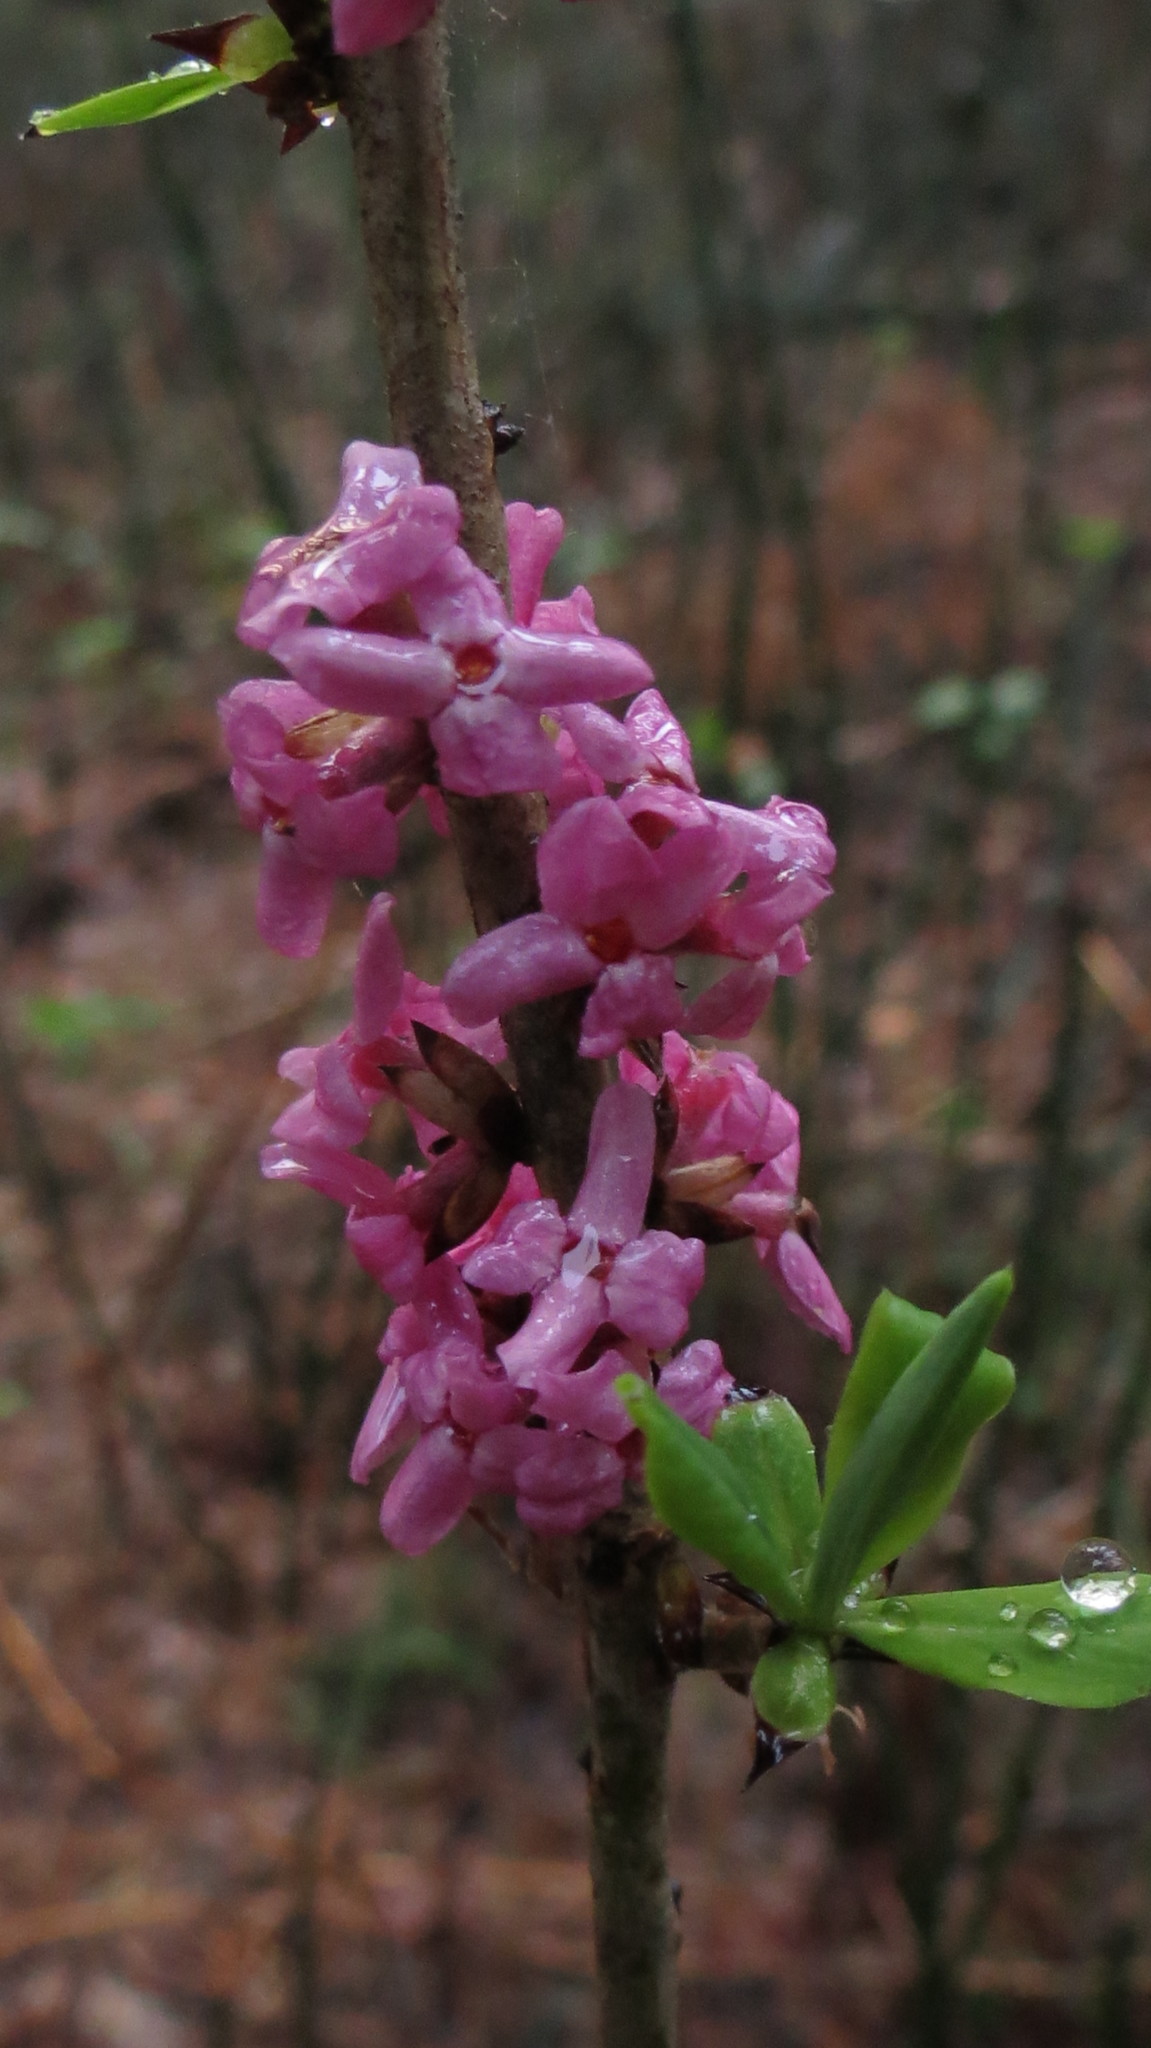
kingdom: Plantae
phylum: Tracheophyta
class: Magnoliopsida
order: Malvales
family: Thymelaeaceae
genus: Daphne
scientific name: Daphne mezereum
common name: Mezereon
